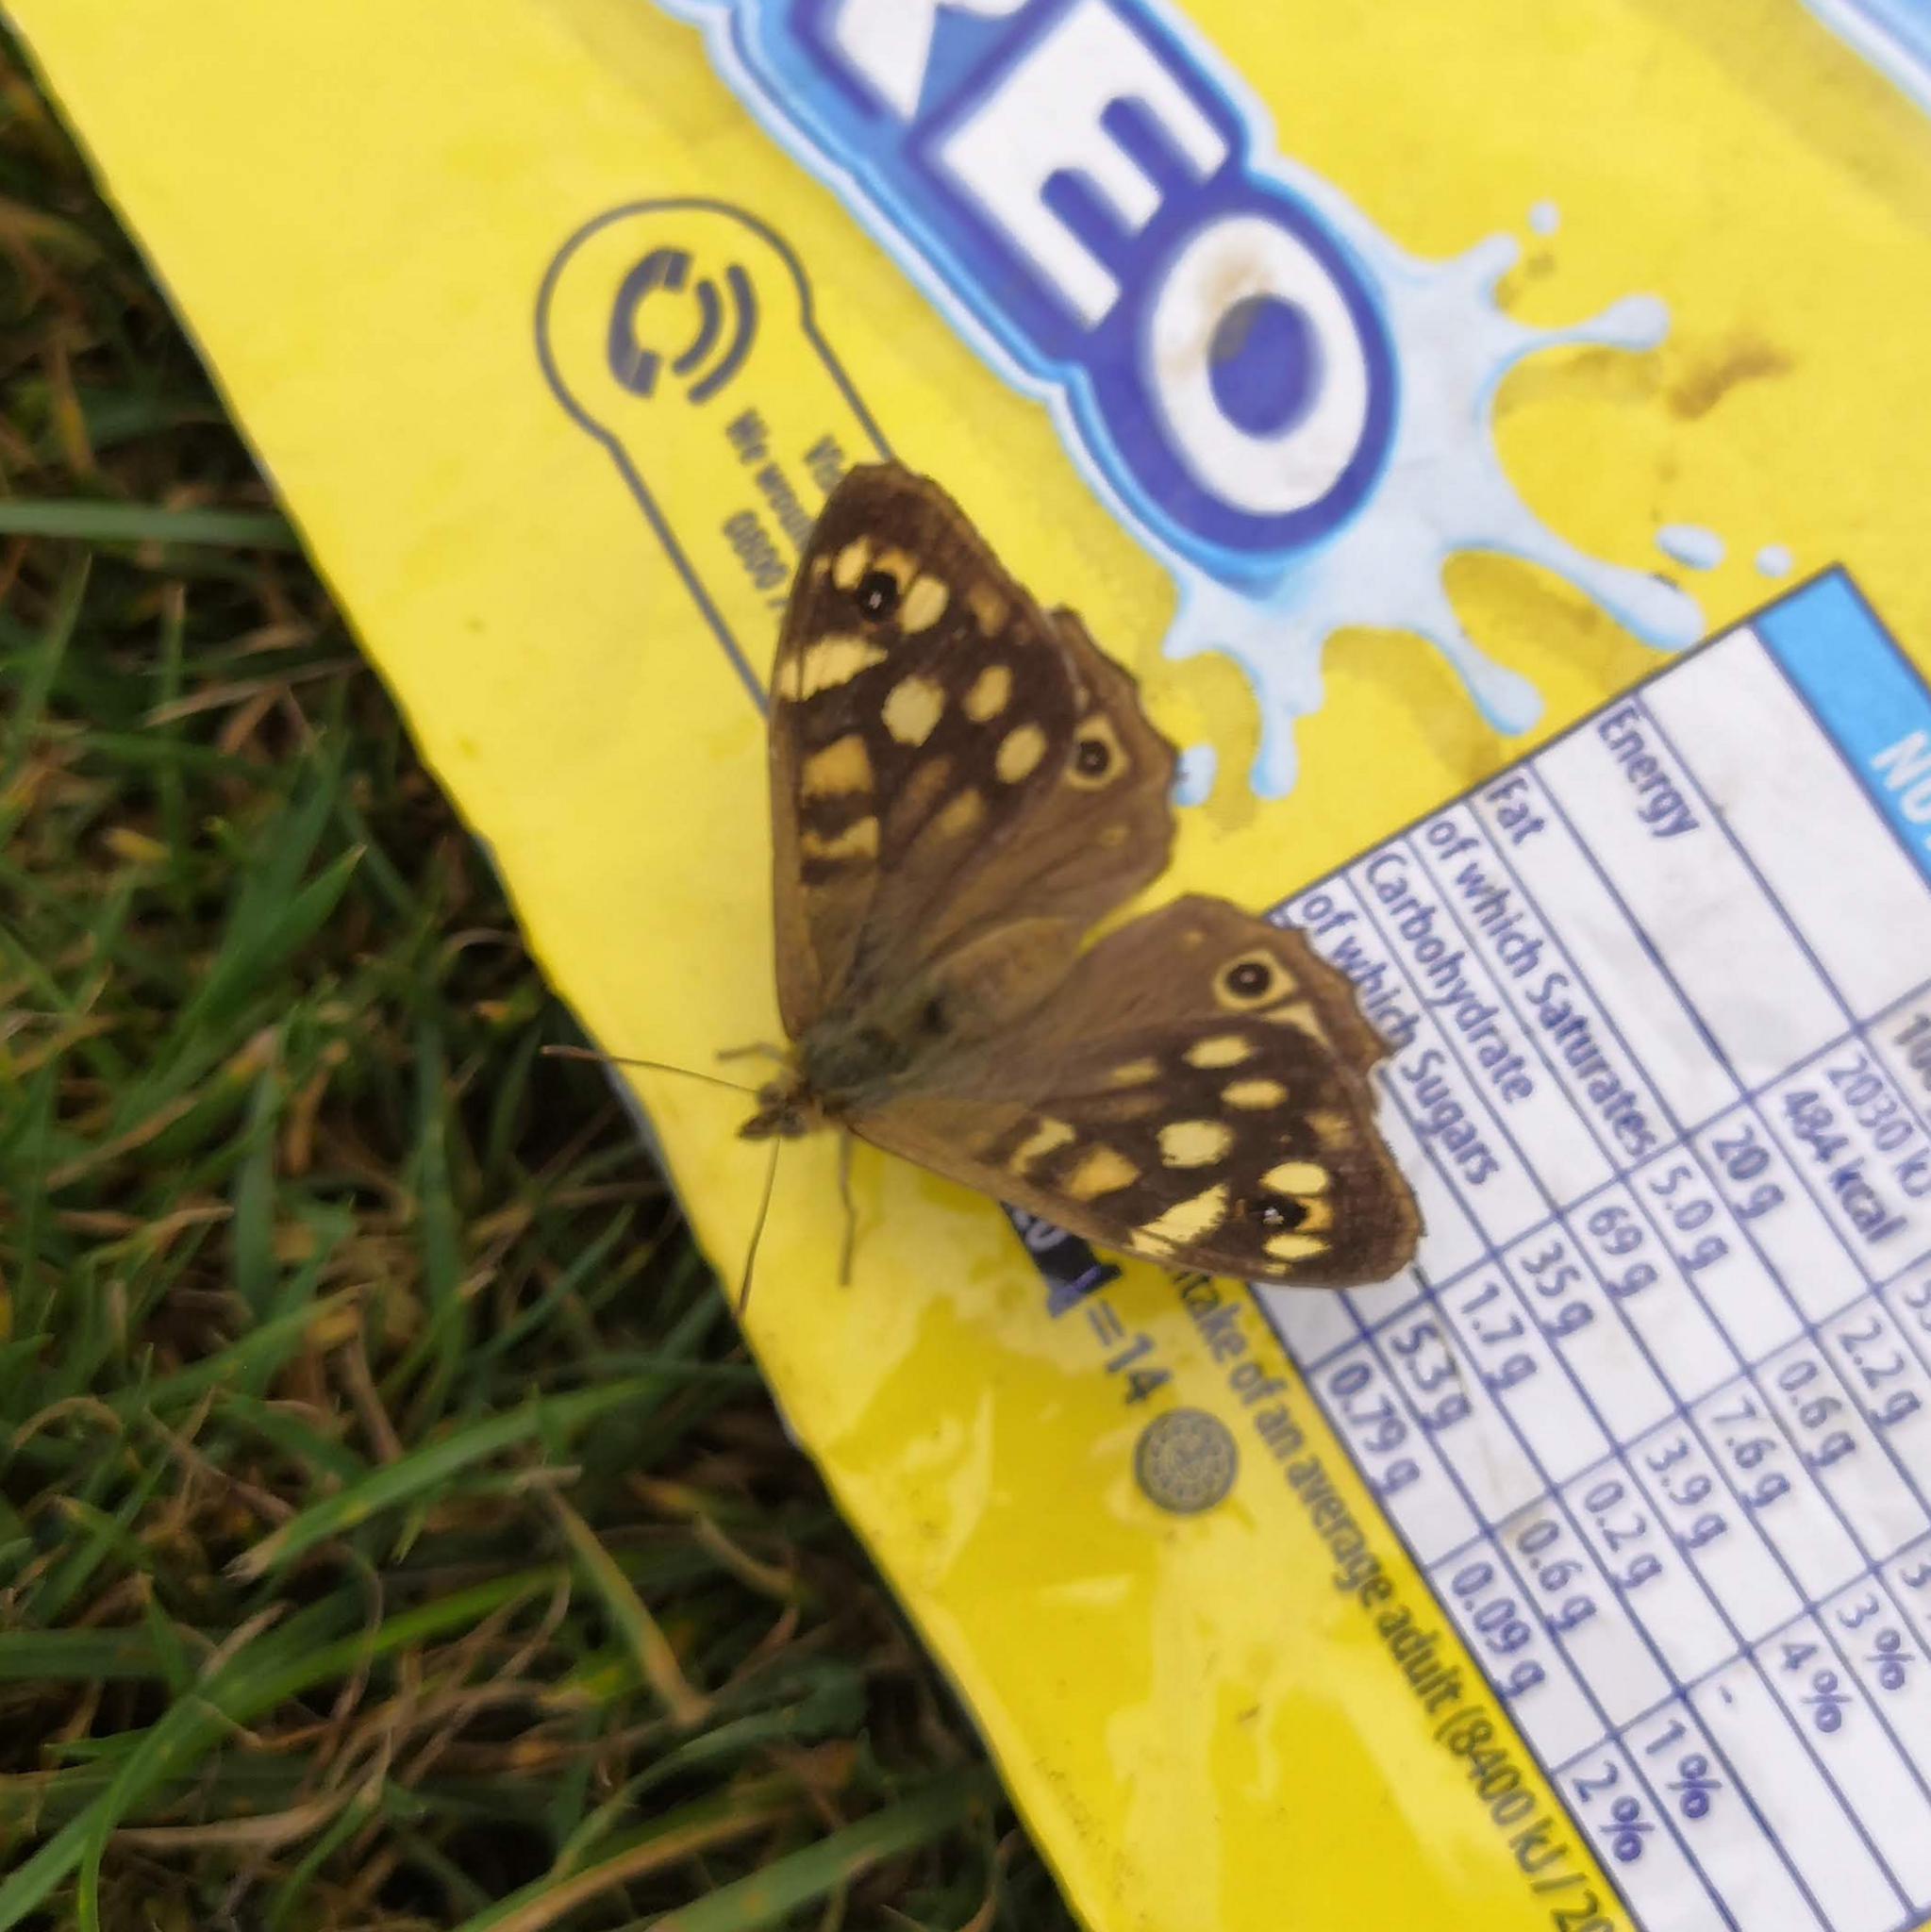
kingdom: Animalia
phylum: Arthropoda
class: Insecta
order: Lepidoptera
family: Nymphalidae
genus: Pararge
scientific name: Pararge aegeria
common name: Speckled wood
